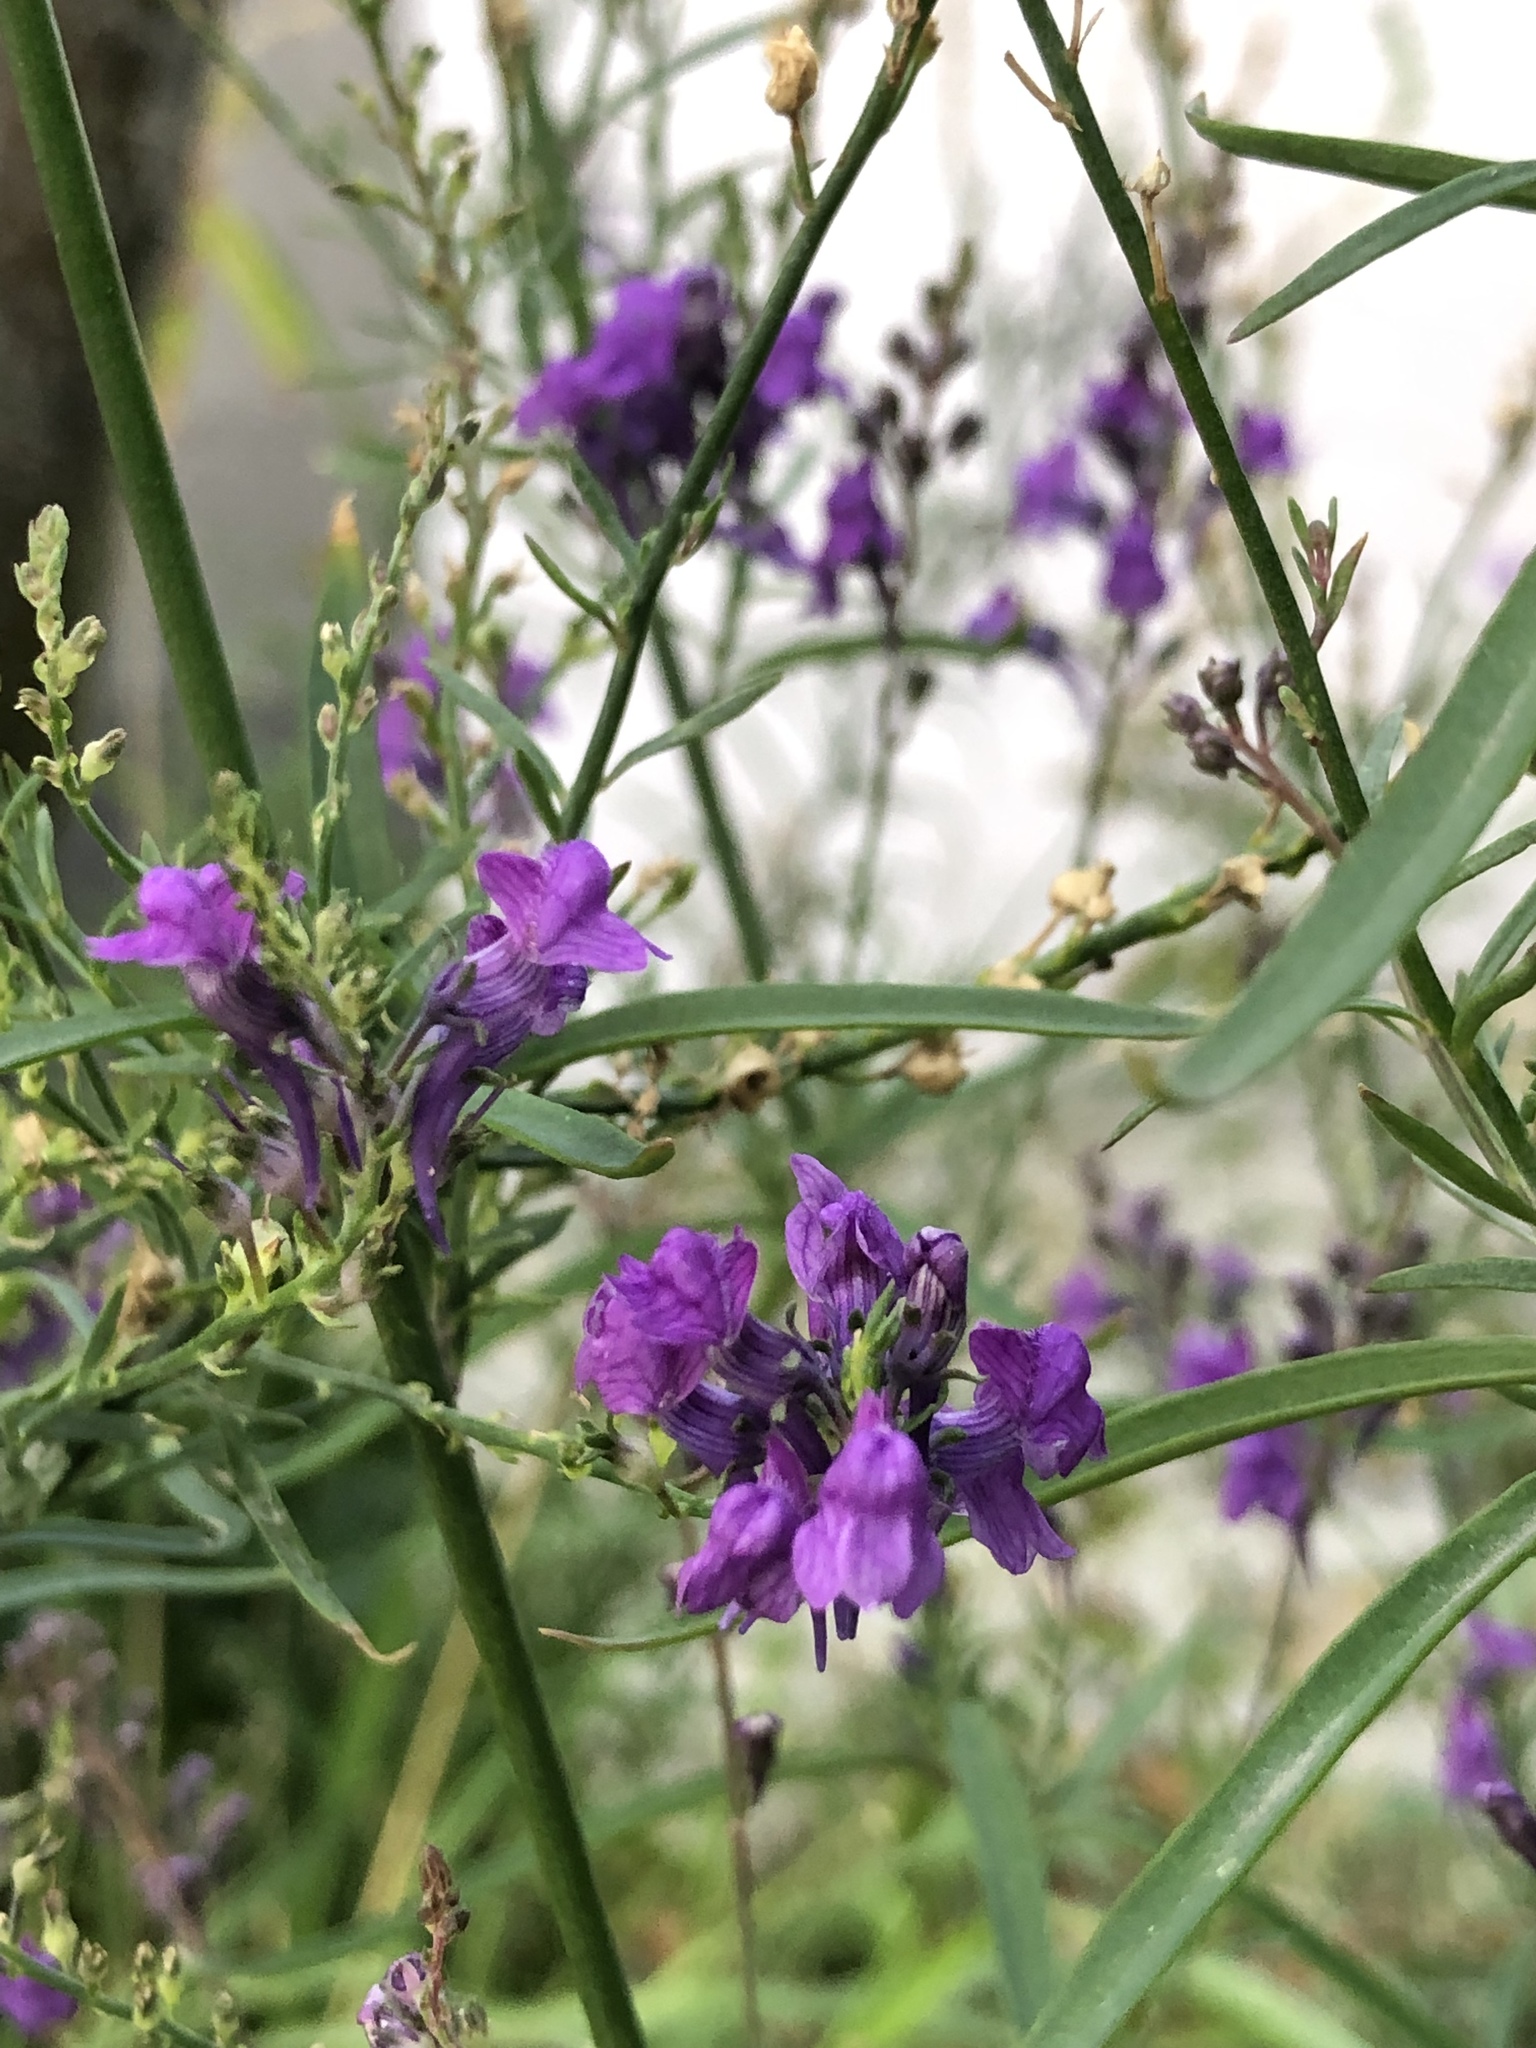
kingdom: Plantae
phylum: Tracheophyta
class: Magnoliopsida
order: Lamiales
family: Plantaginaceae
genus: Linaria
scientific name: Linaria purpurea
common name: Purple toadflax
